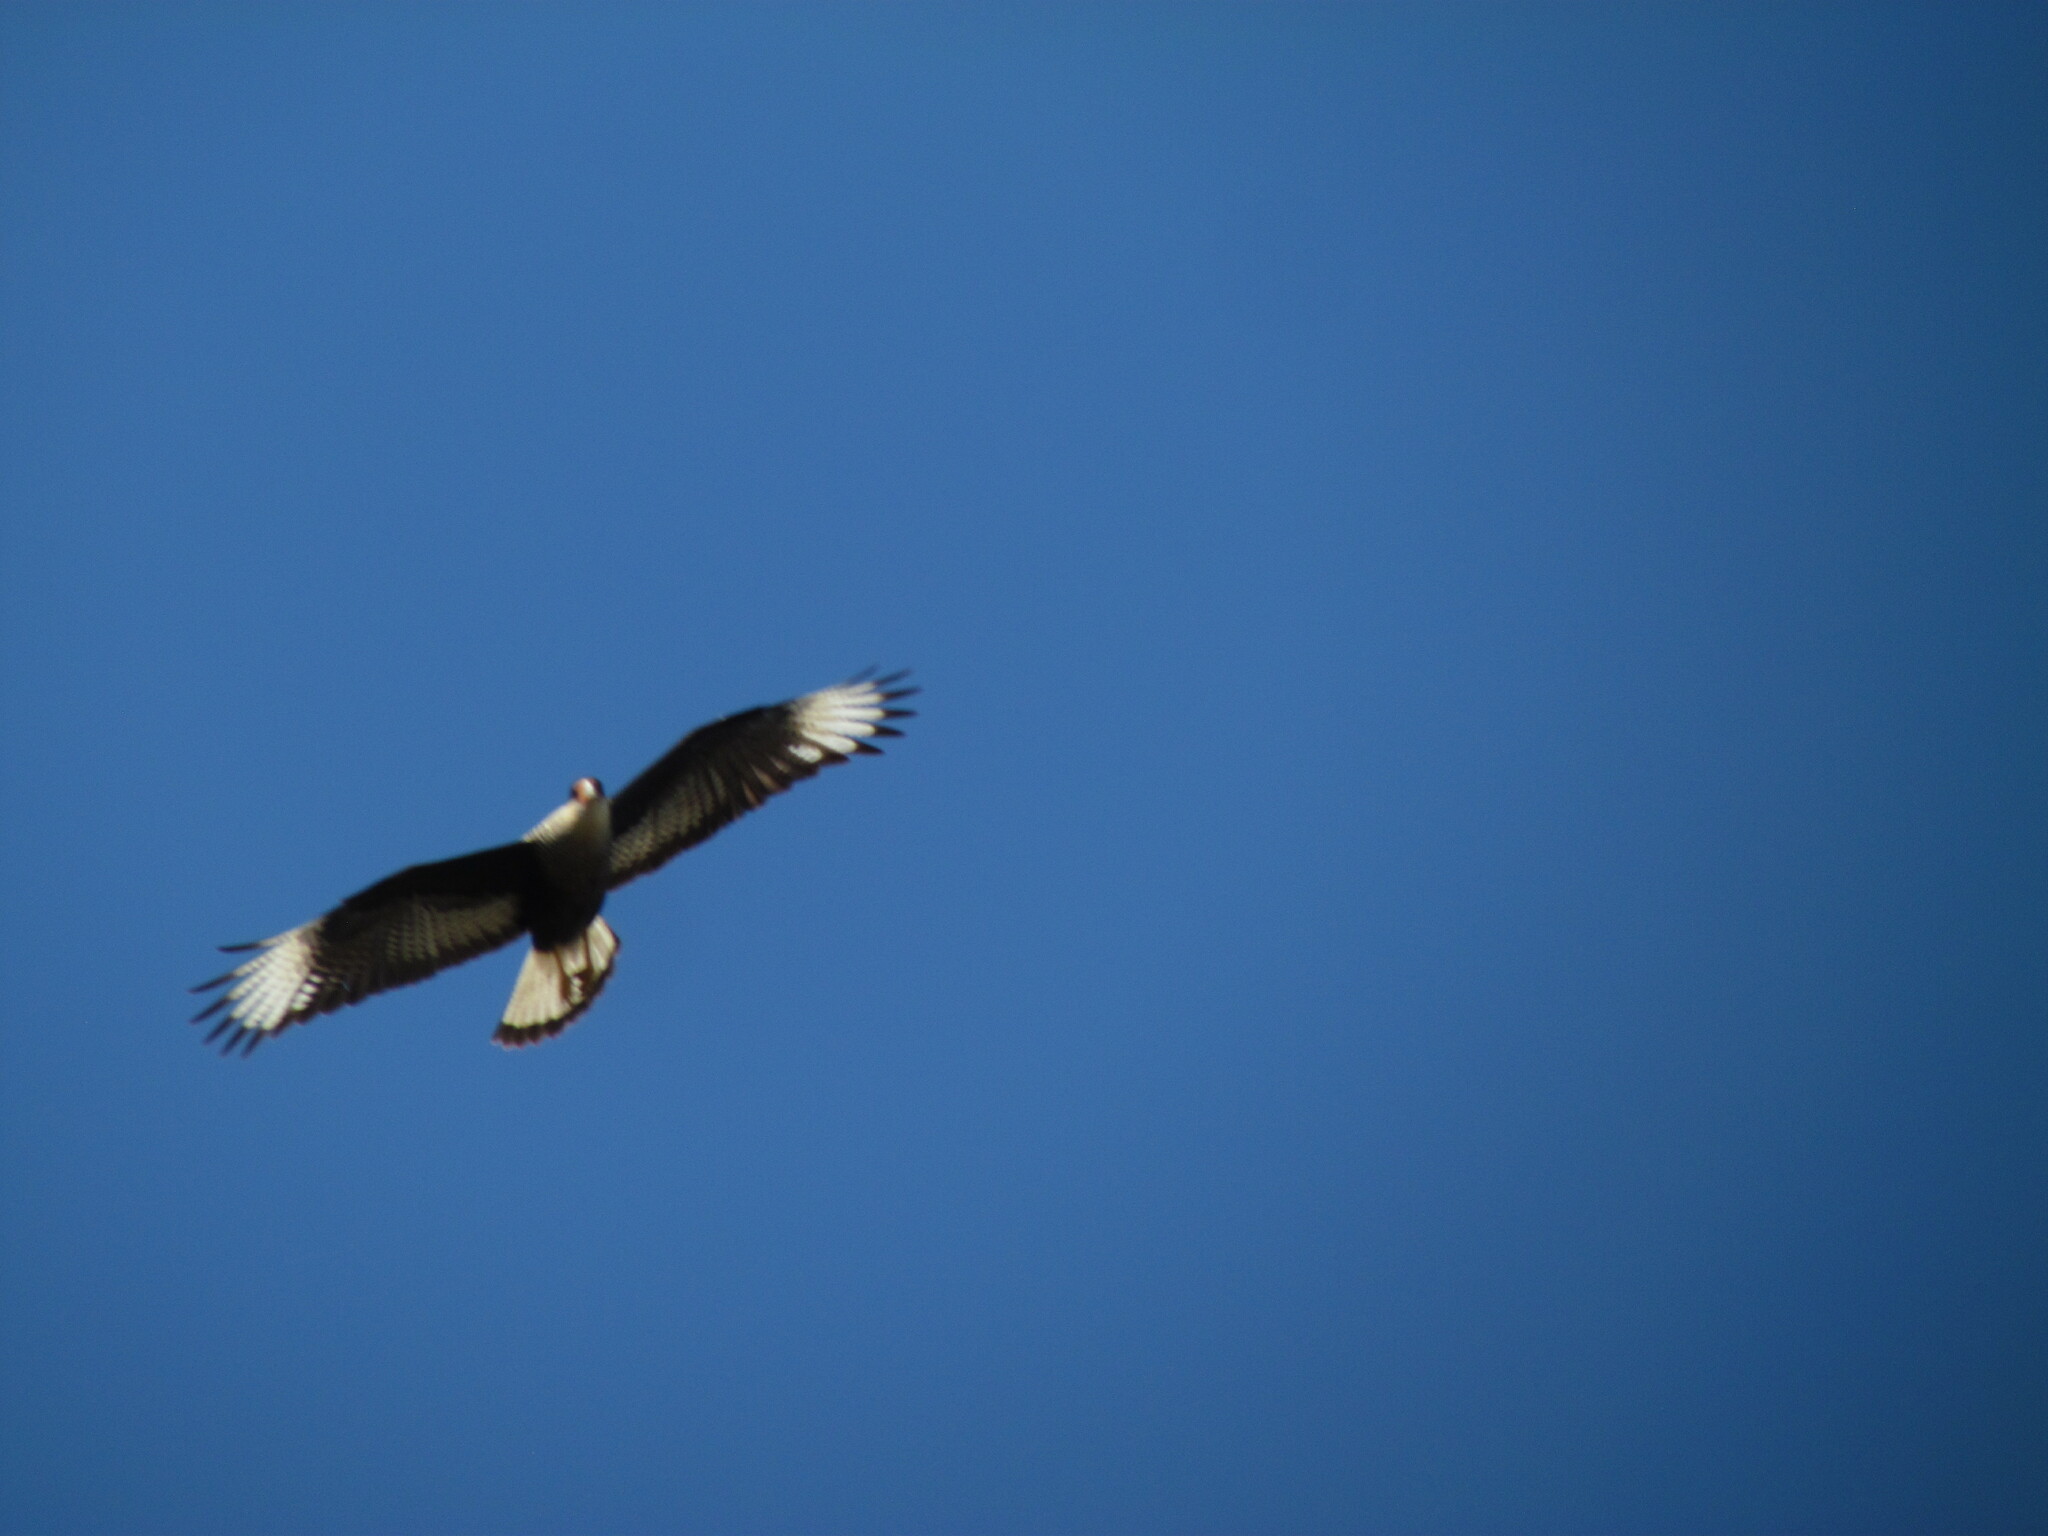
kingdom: Animalia
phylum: Chordata
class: Aves
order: Falconiformes
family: Falconidae
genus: Caracara
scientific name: Caracara plancus
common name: Southern caracara
